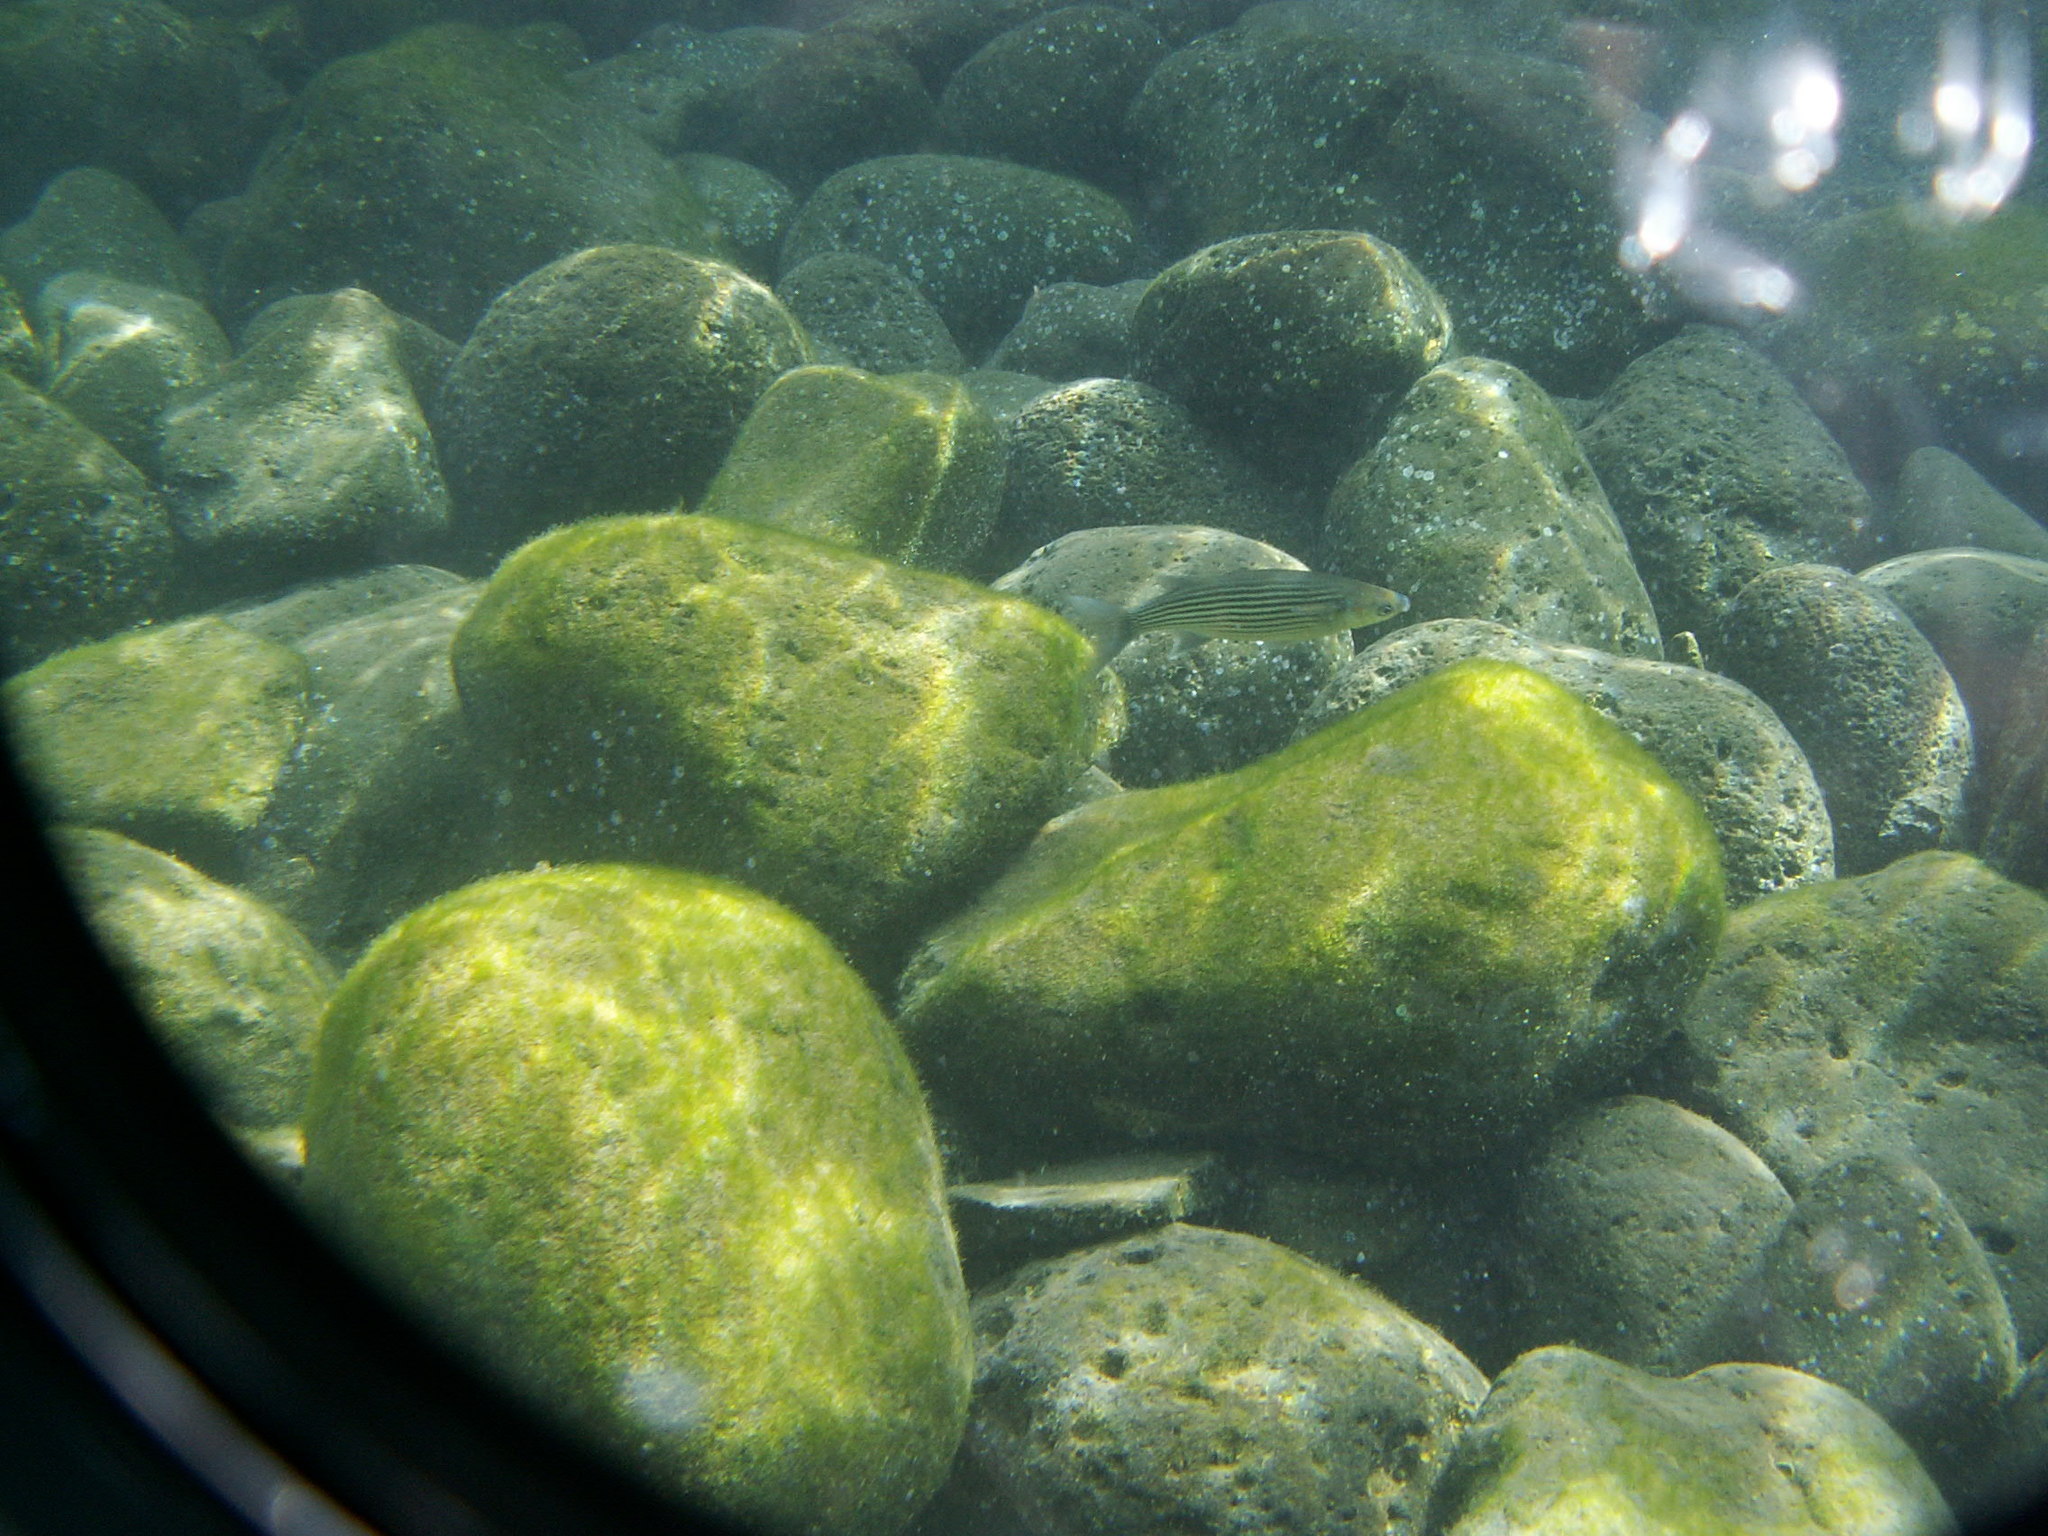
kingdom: Animalia
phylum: Chordata
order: Mugiliformes
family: Mugilidae
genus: Chelon
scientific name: Chelon bispinosus
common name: Cape verde mullet
